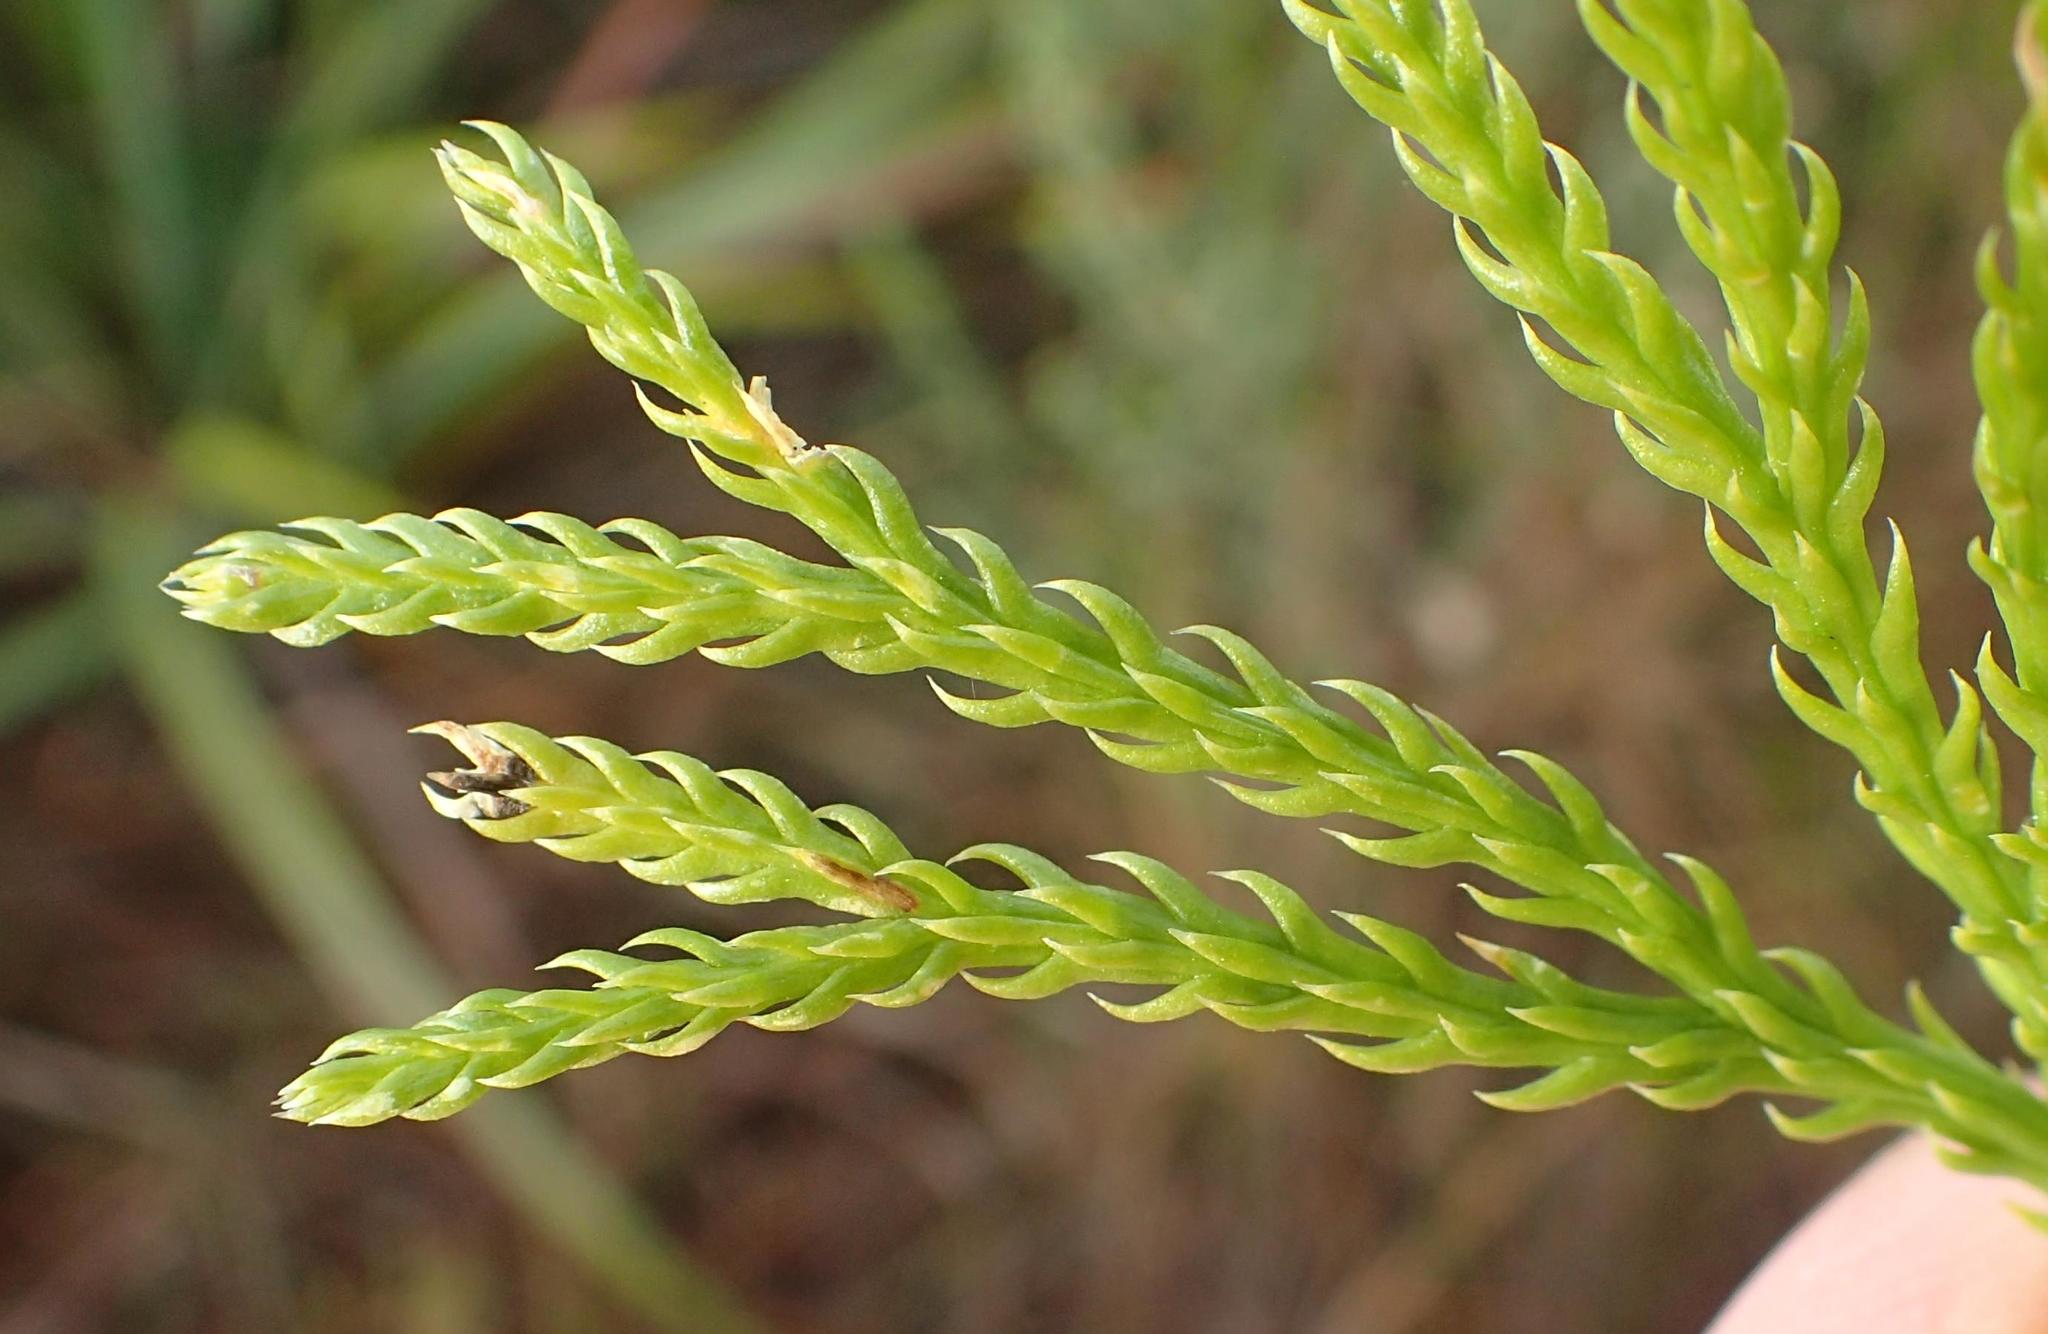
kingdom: Plantae
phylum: Tracheophyta
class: Lycopodiopsida
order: Lycopodiales
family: Lycopodiaceae
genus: Diphasiastrum
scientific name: Diphasiastrum zanclophyllum
